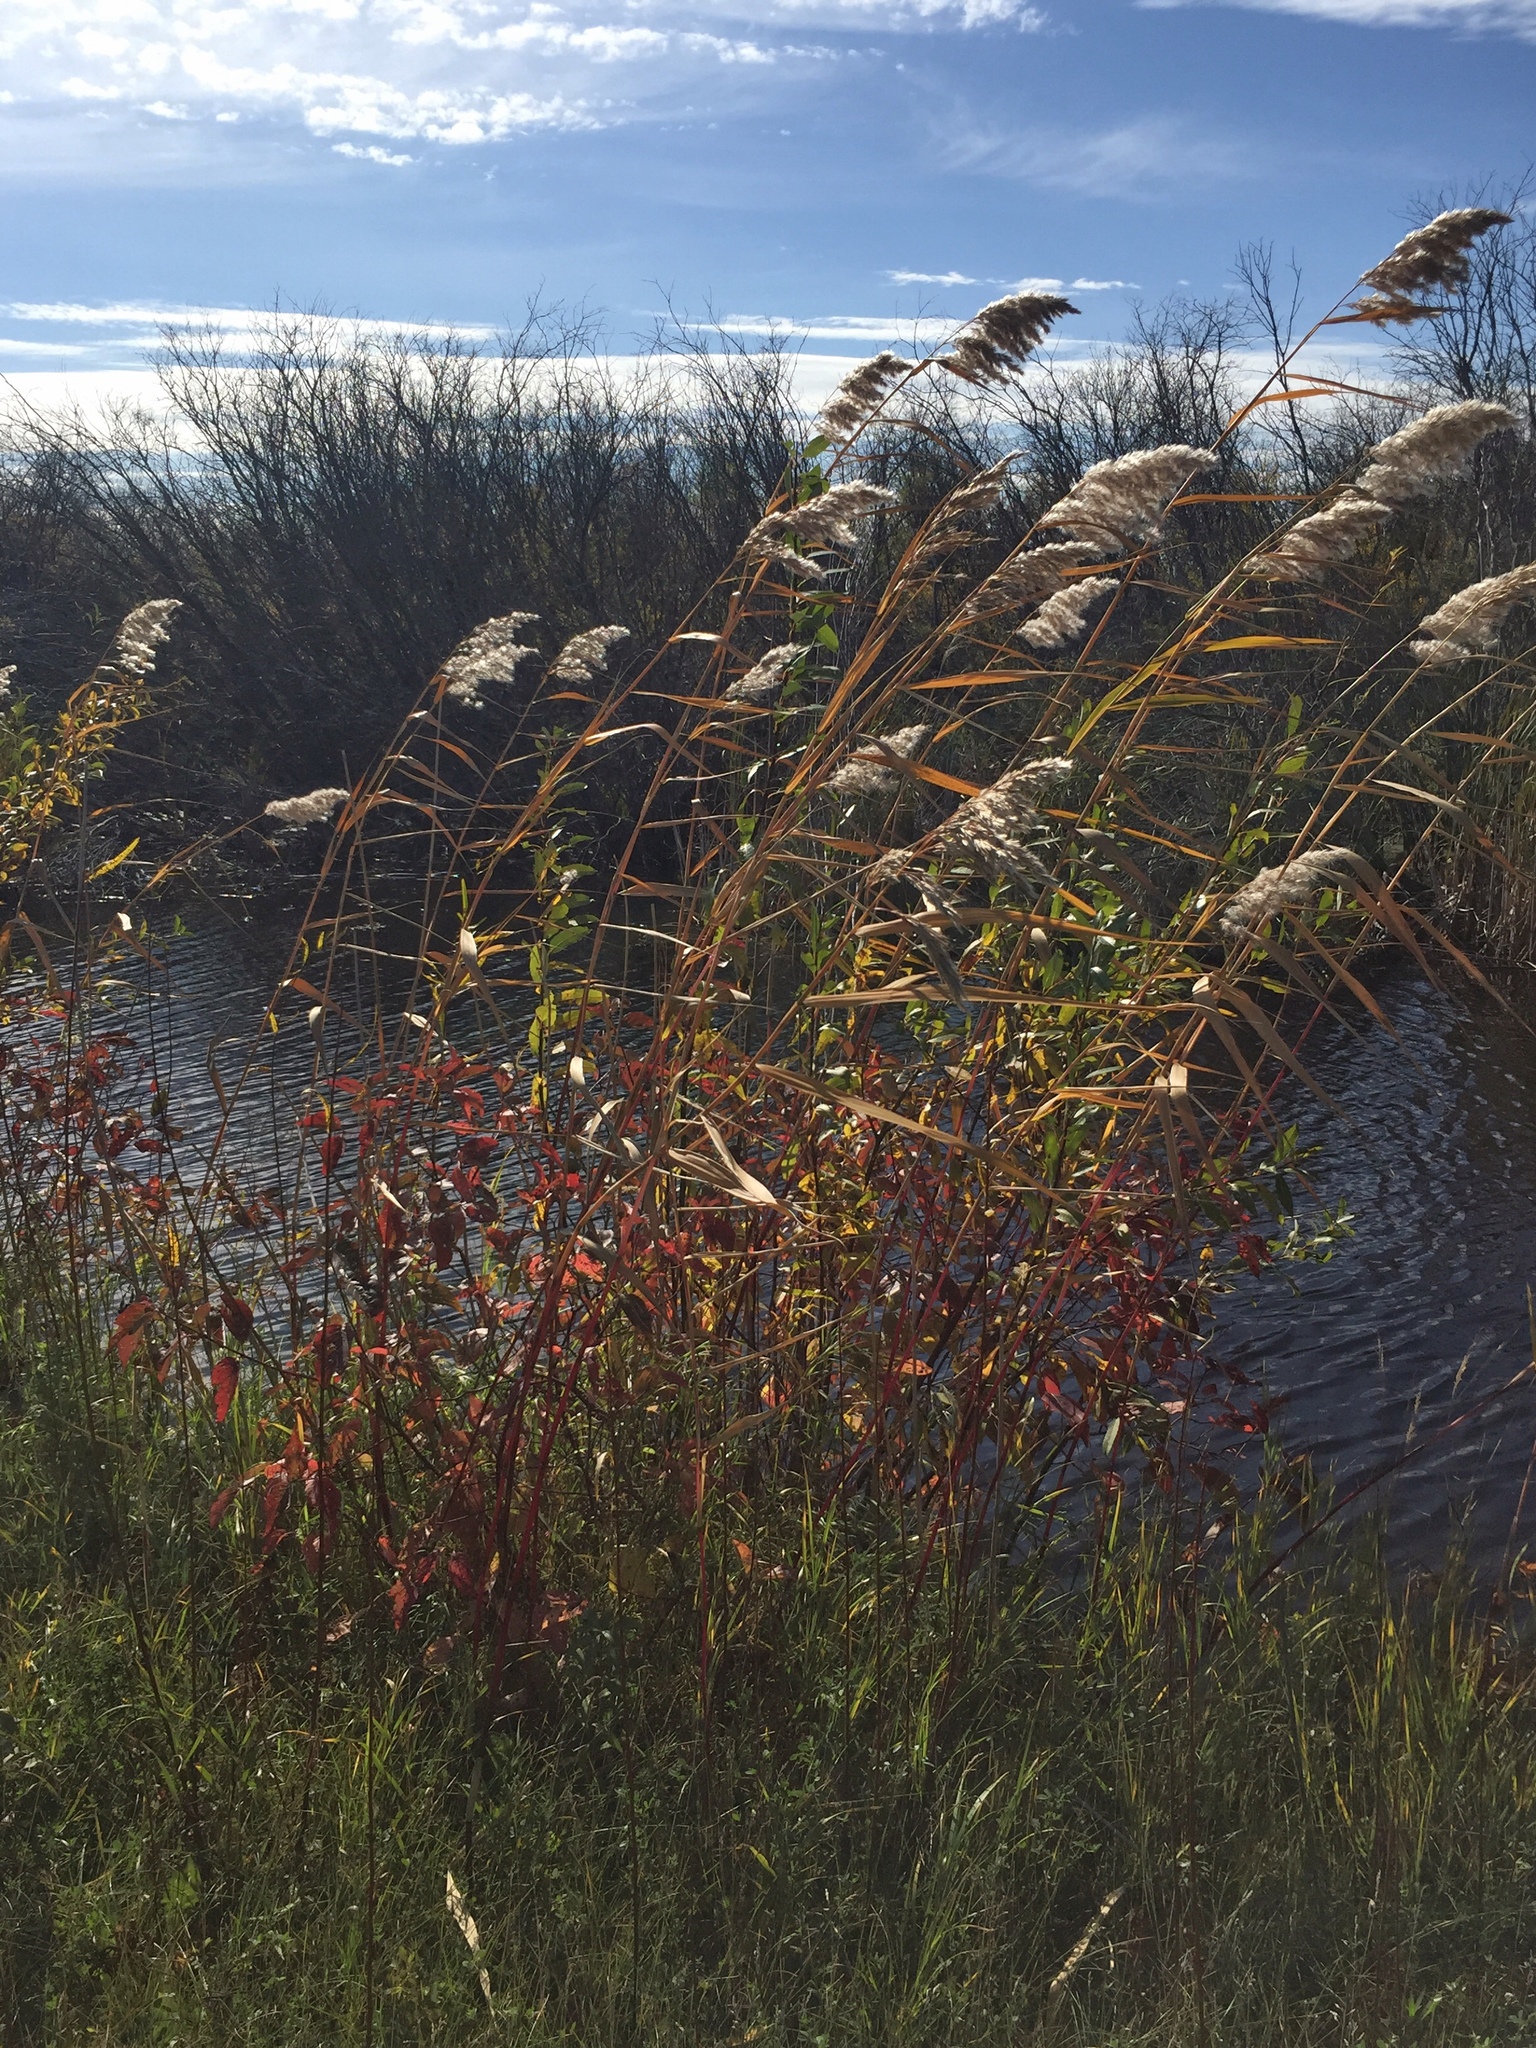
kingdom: Plantae
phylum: Tracheophyta
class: Liliopsida
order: Poales
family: Poaceae
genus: Phragmites
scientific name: Phragmites australis
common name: Common reed
